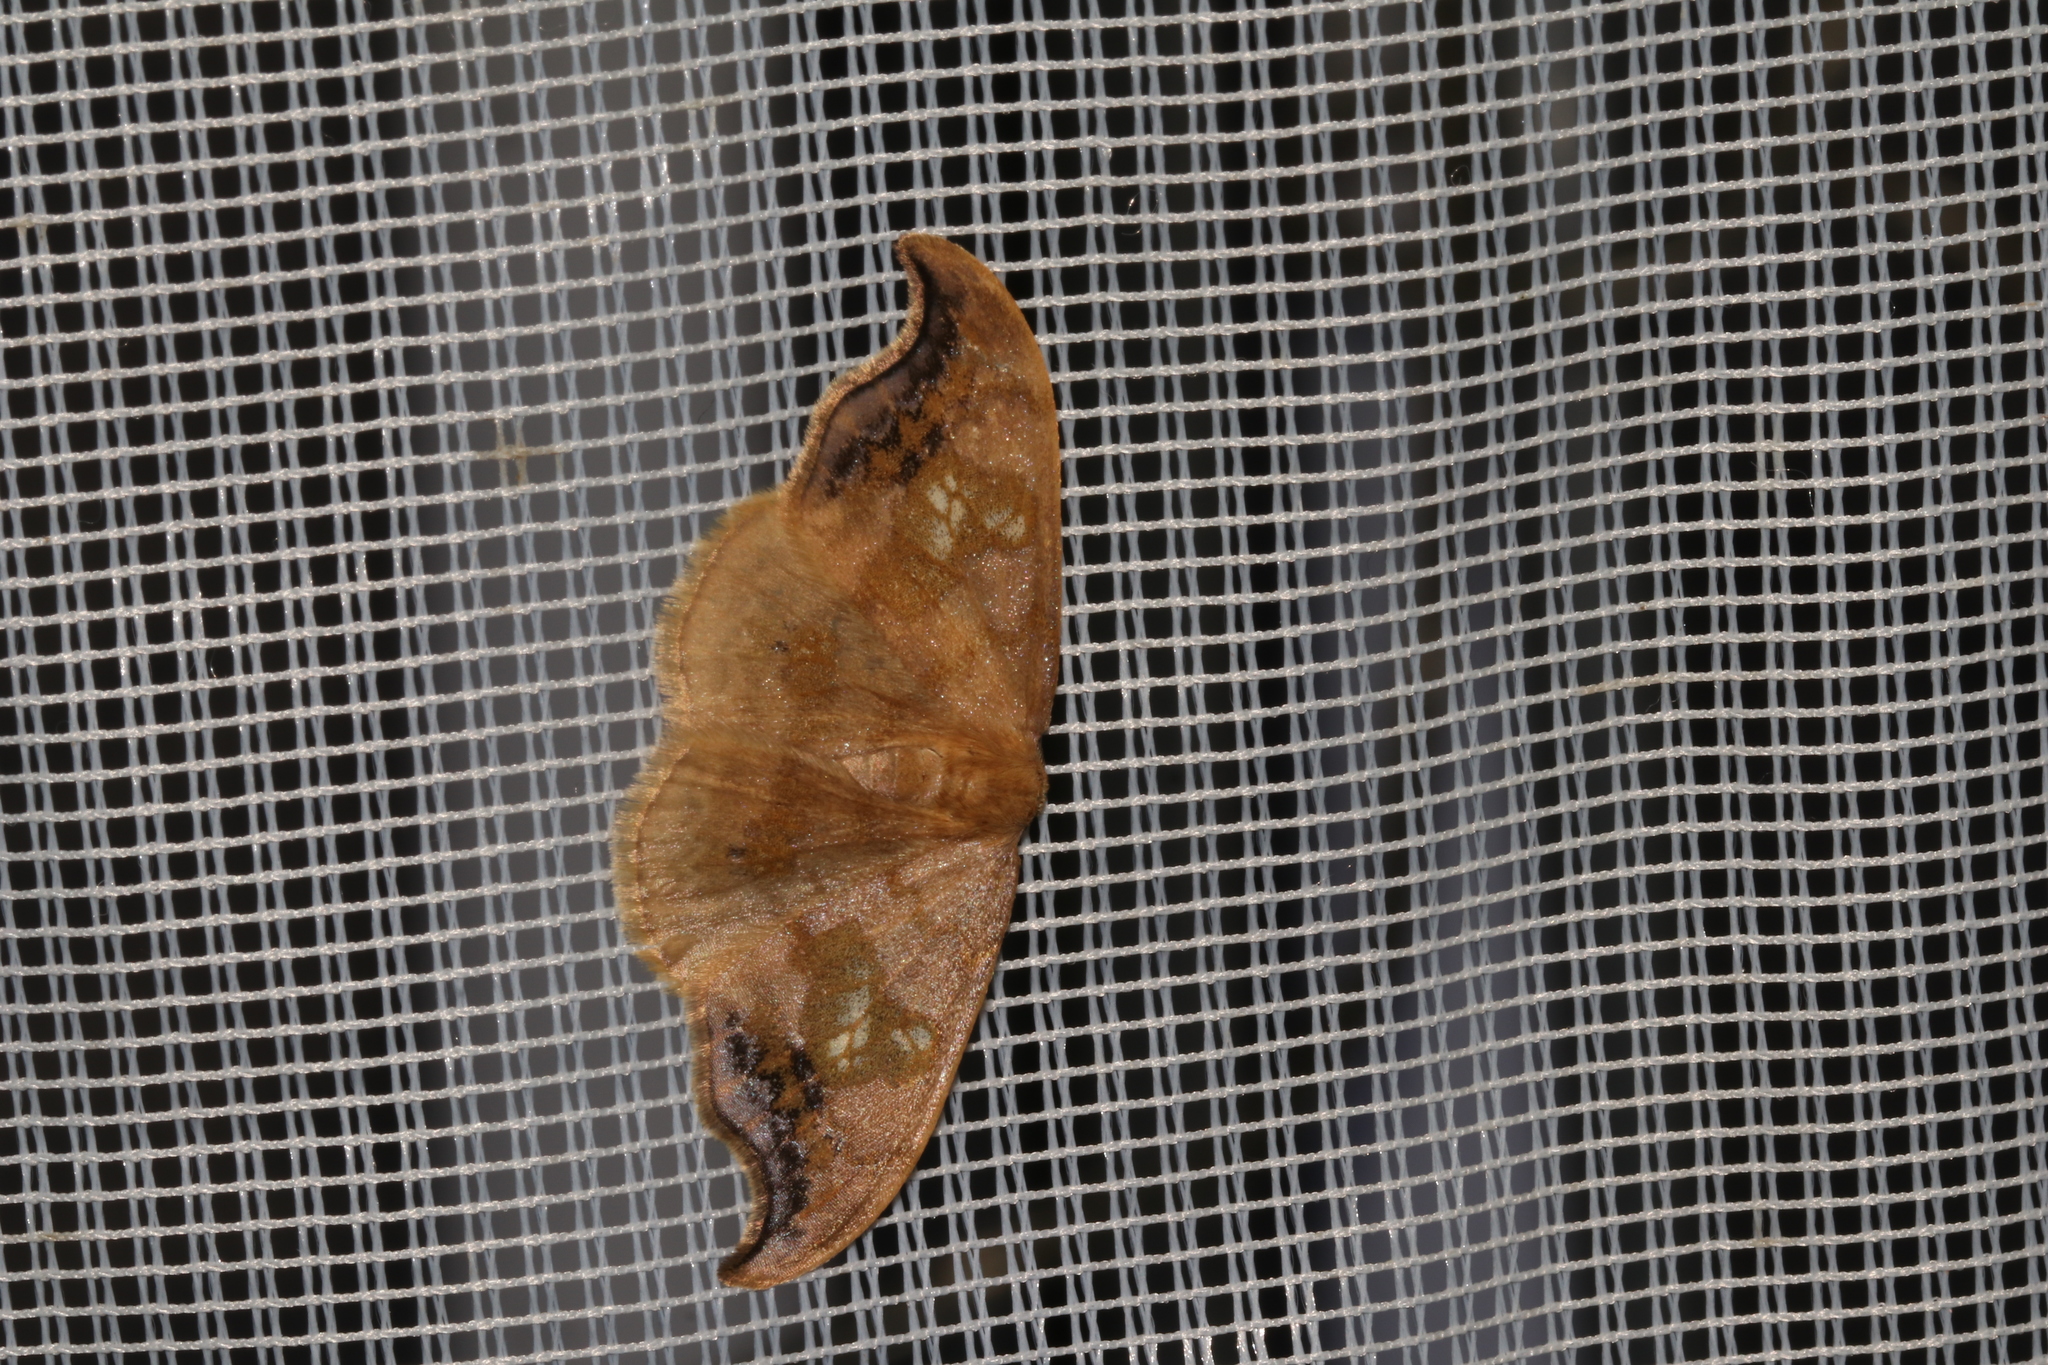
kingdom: Animalia
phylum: Arthropoda
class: Insecta
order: Lepidoptera
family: Drepanidae
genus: Sabra
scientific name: Sabra harpagula
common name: Scarce hook-tip
